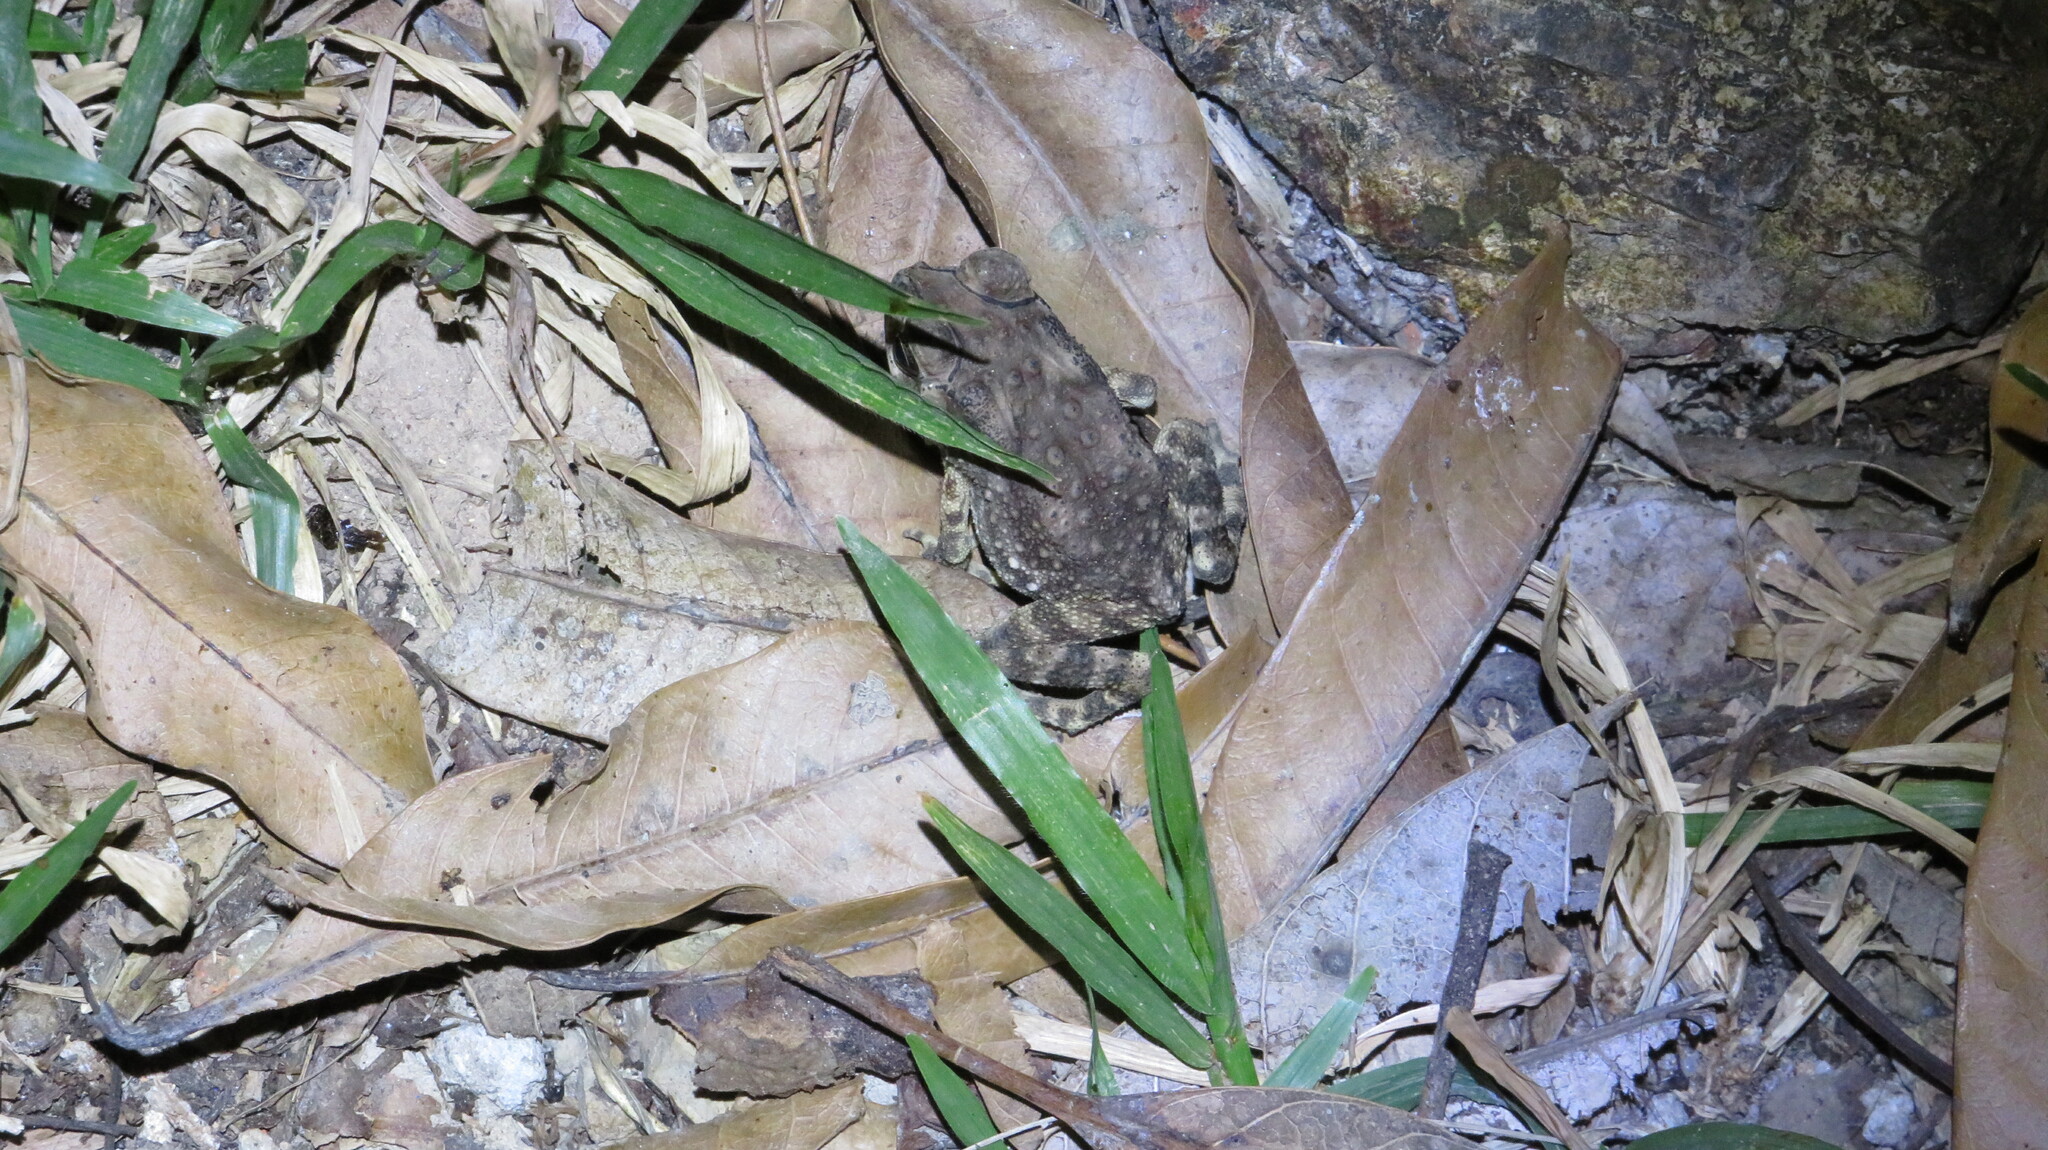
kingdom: Animalia
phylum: Chordata
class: Amphibia
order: Anura
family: Bufonidae
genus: Duttaphrynus
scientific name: Duttaphrynus melanostictus
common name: Common sunda toad
